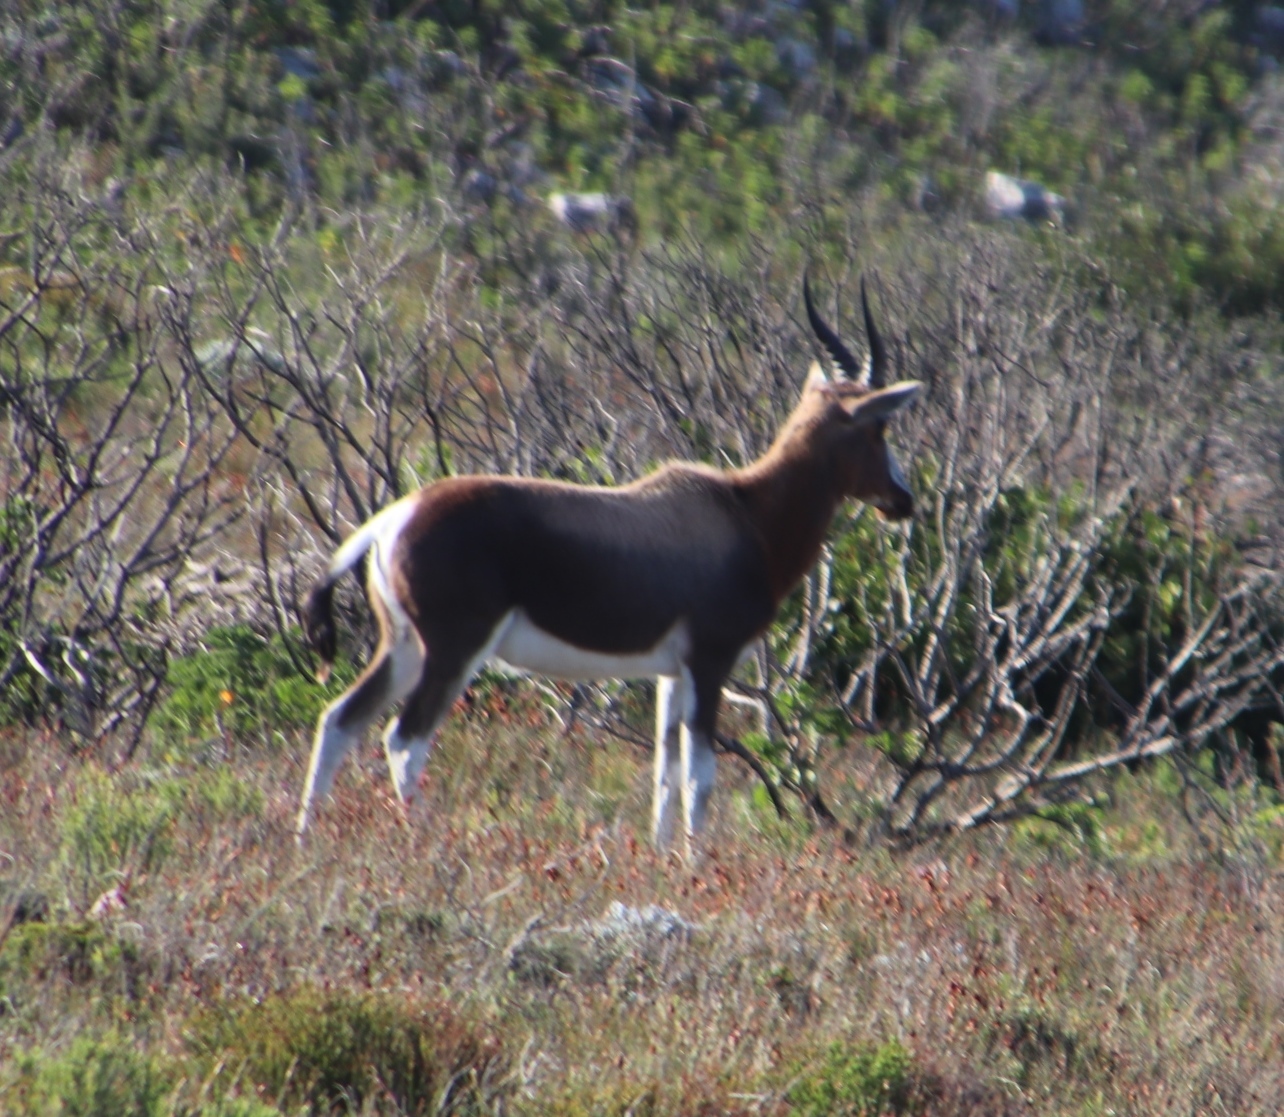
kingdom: Animalia
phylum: Chordata
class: Mammalia
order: Artiodactyla
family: Bovidae
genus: Damaliscus
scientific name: Damaliscus pygargus
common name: Bontebok
